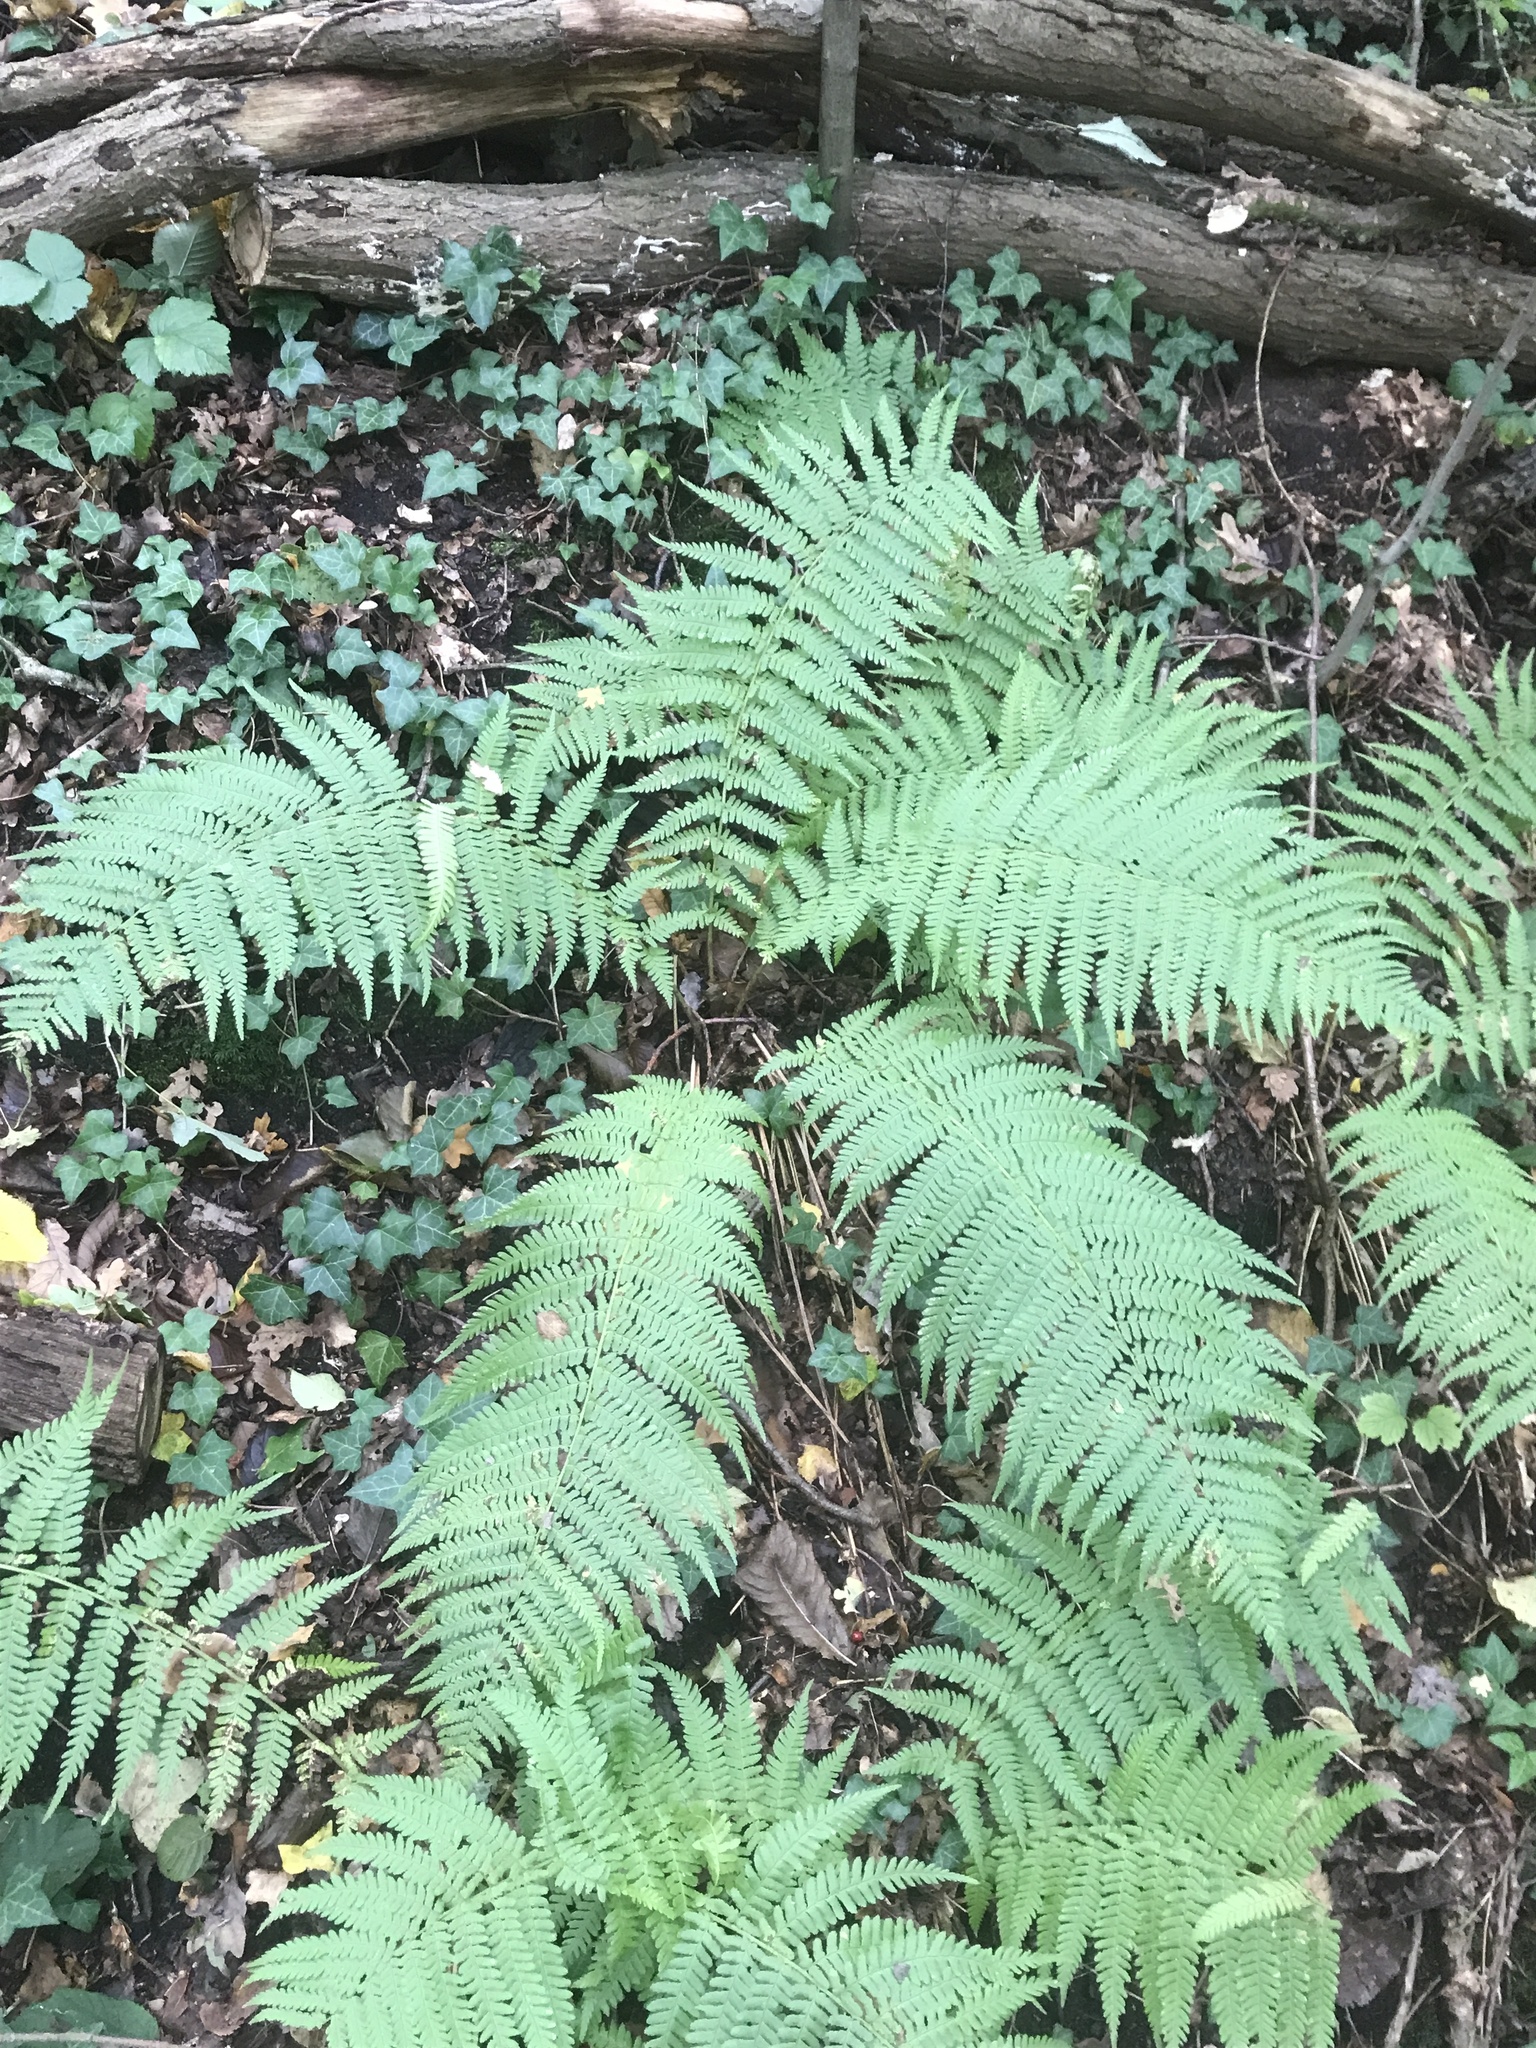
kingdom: Plantae
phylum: Tracheophyta
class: Polypodiopsida
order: Polypodiales
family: Dryopteridaceae
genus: Dryopteris
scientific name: Dryopteris filix-mas
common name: Male fern
